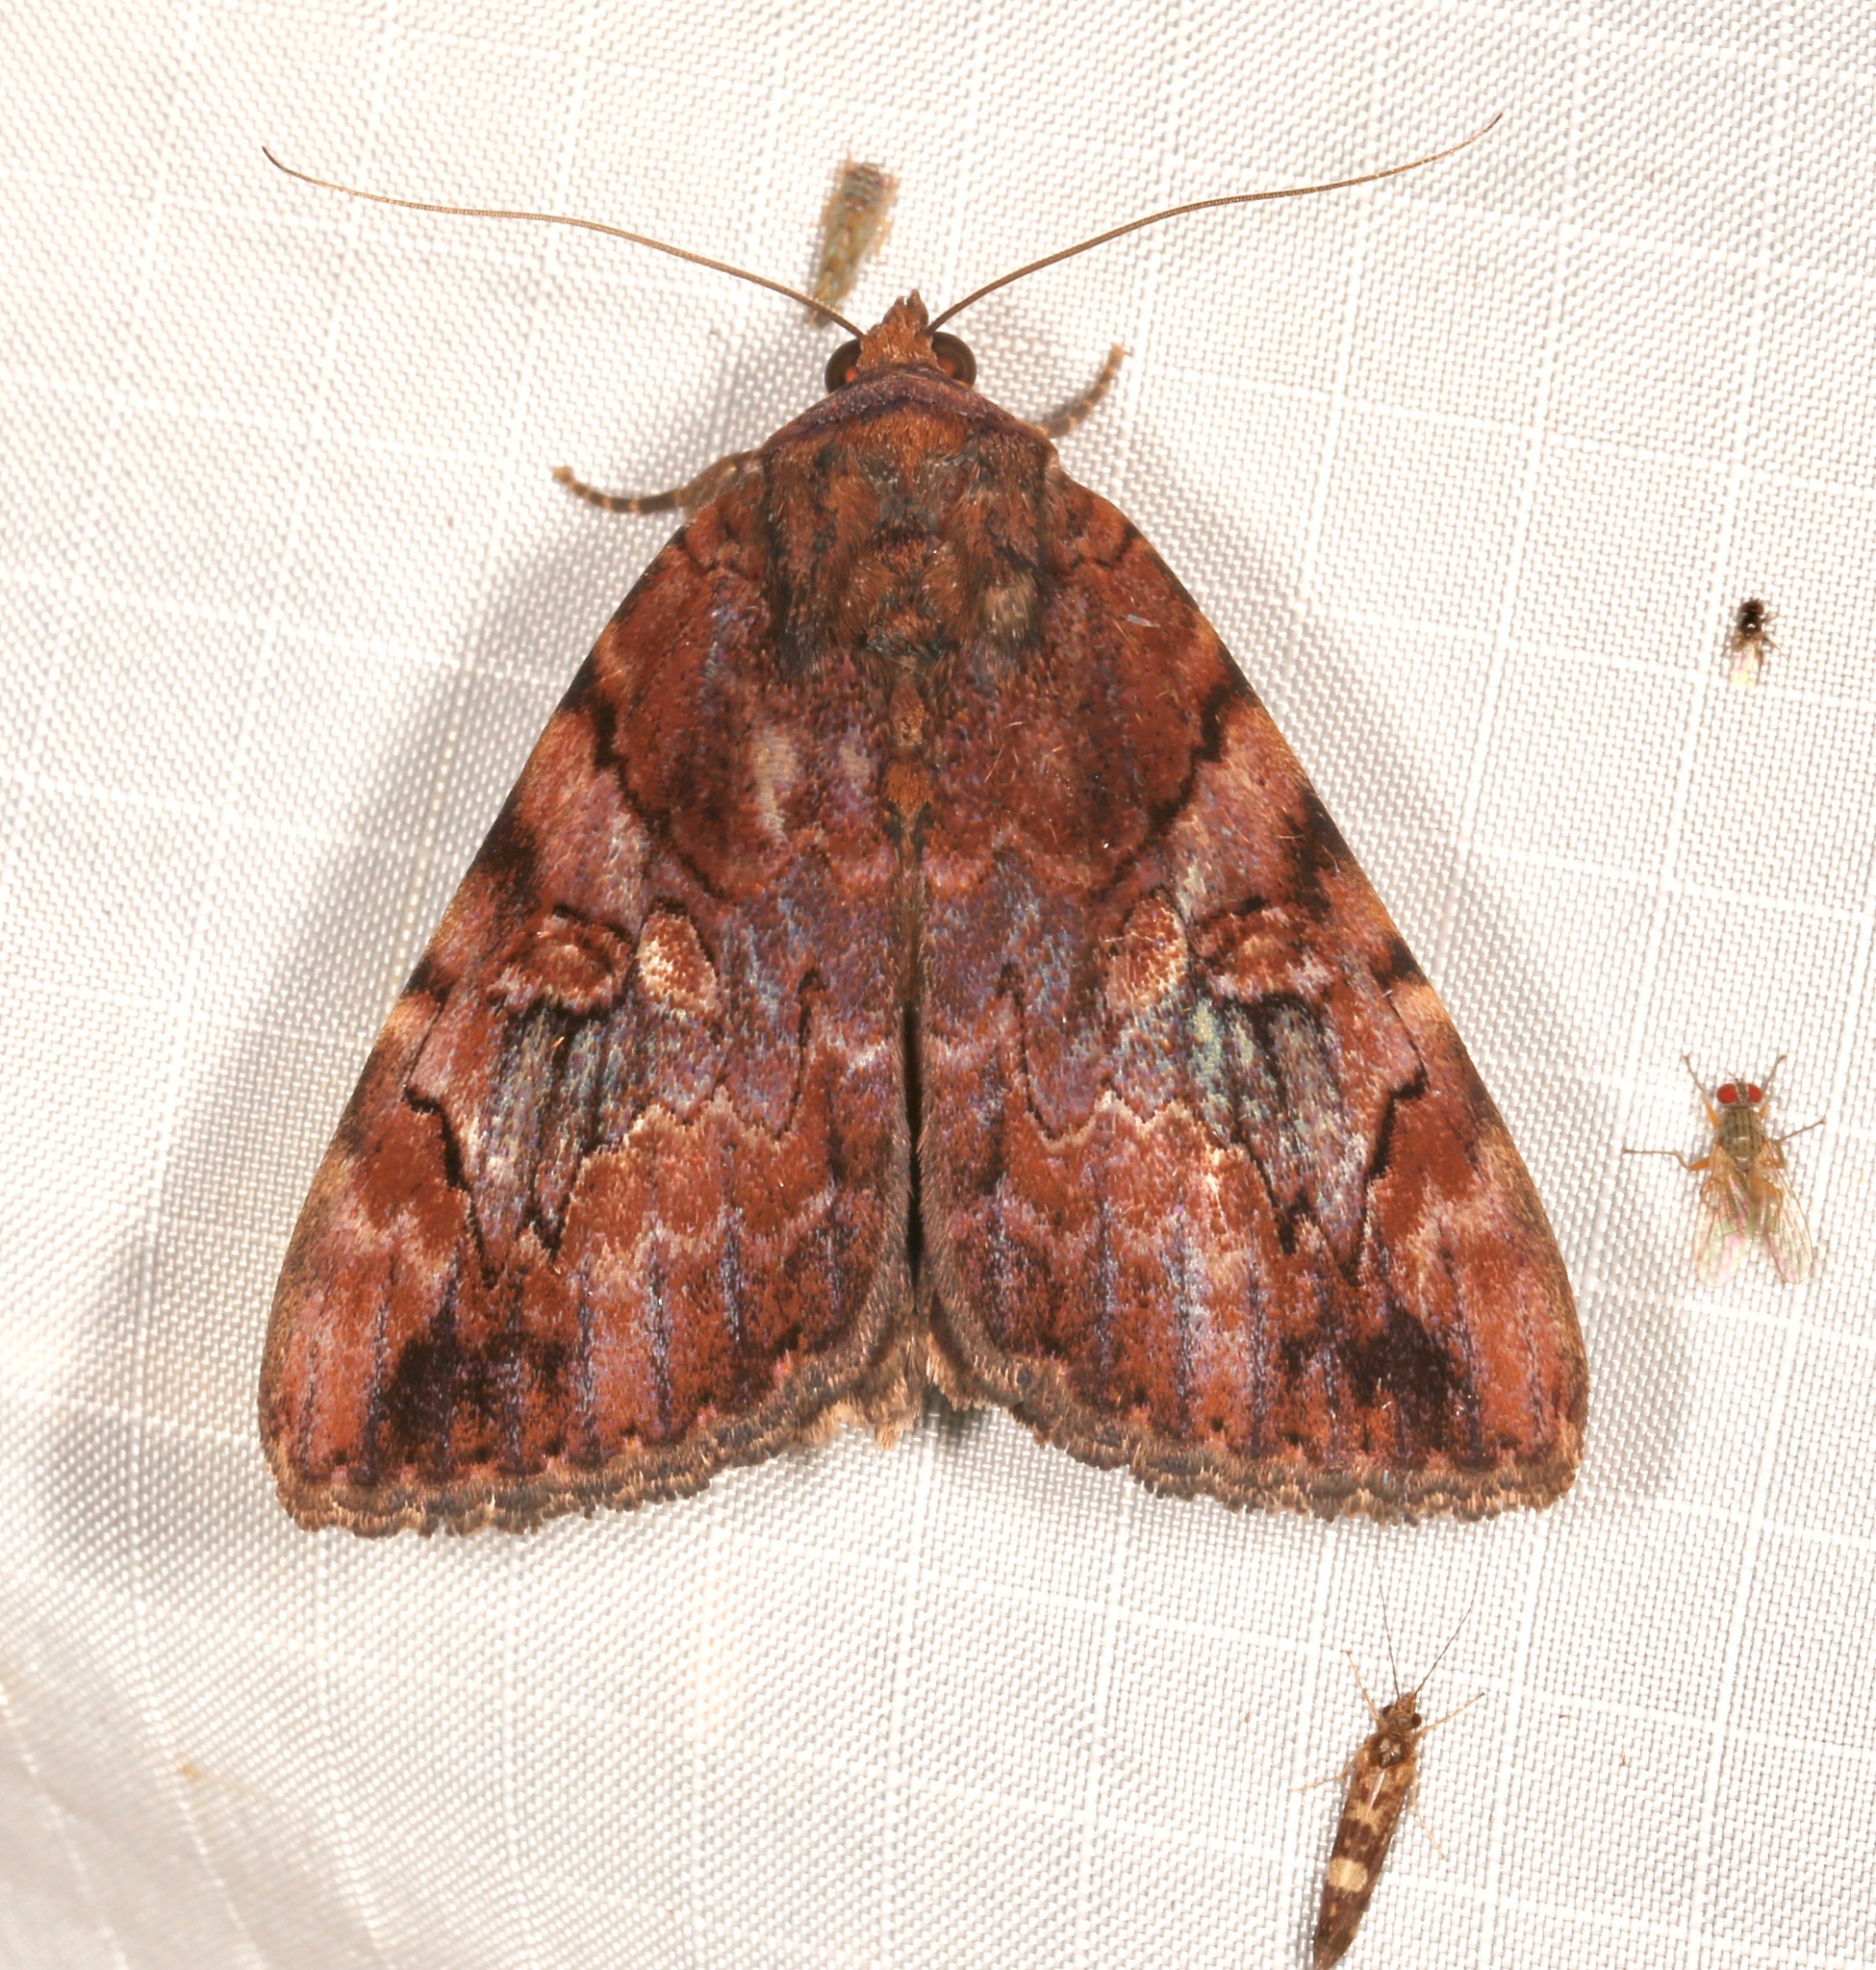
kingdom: Animalia
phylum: Arthropoda
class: Insecta
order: Lepidoptera
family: Erebidae
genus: Catocala
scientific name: Catocala muliercula
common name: The little wife underwing
